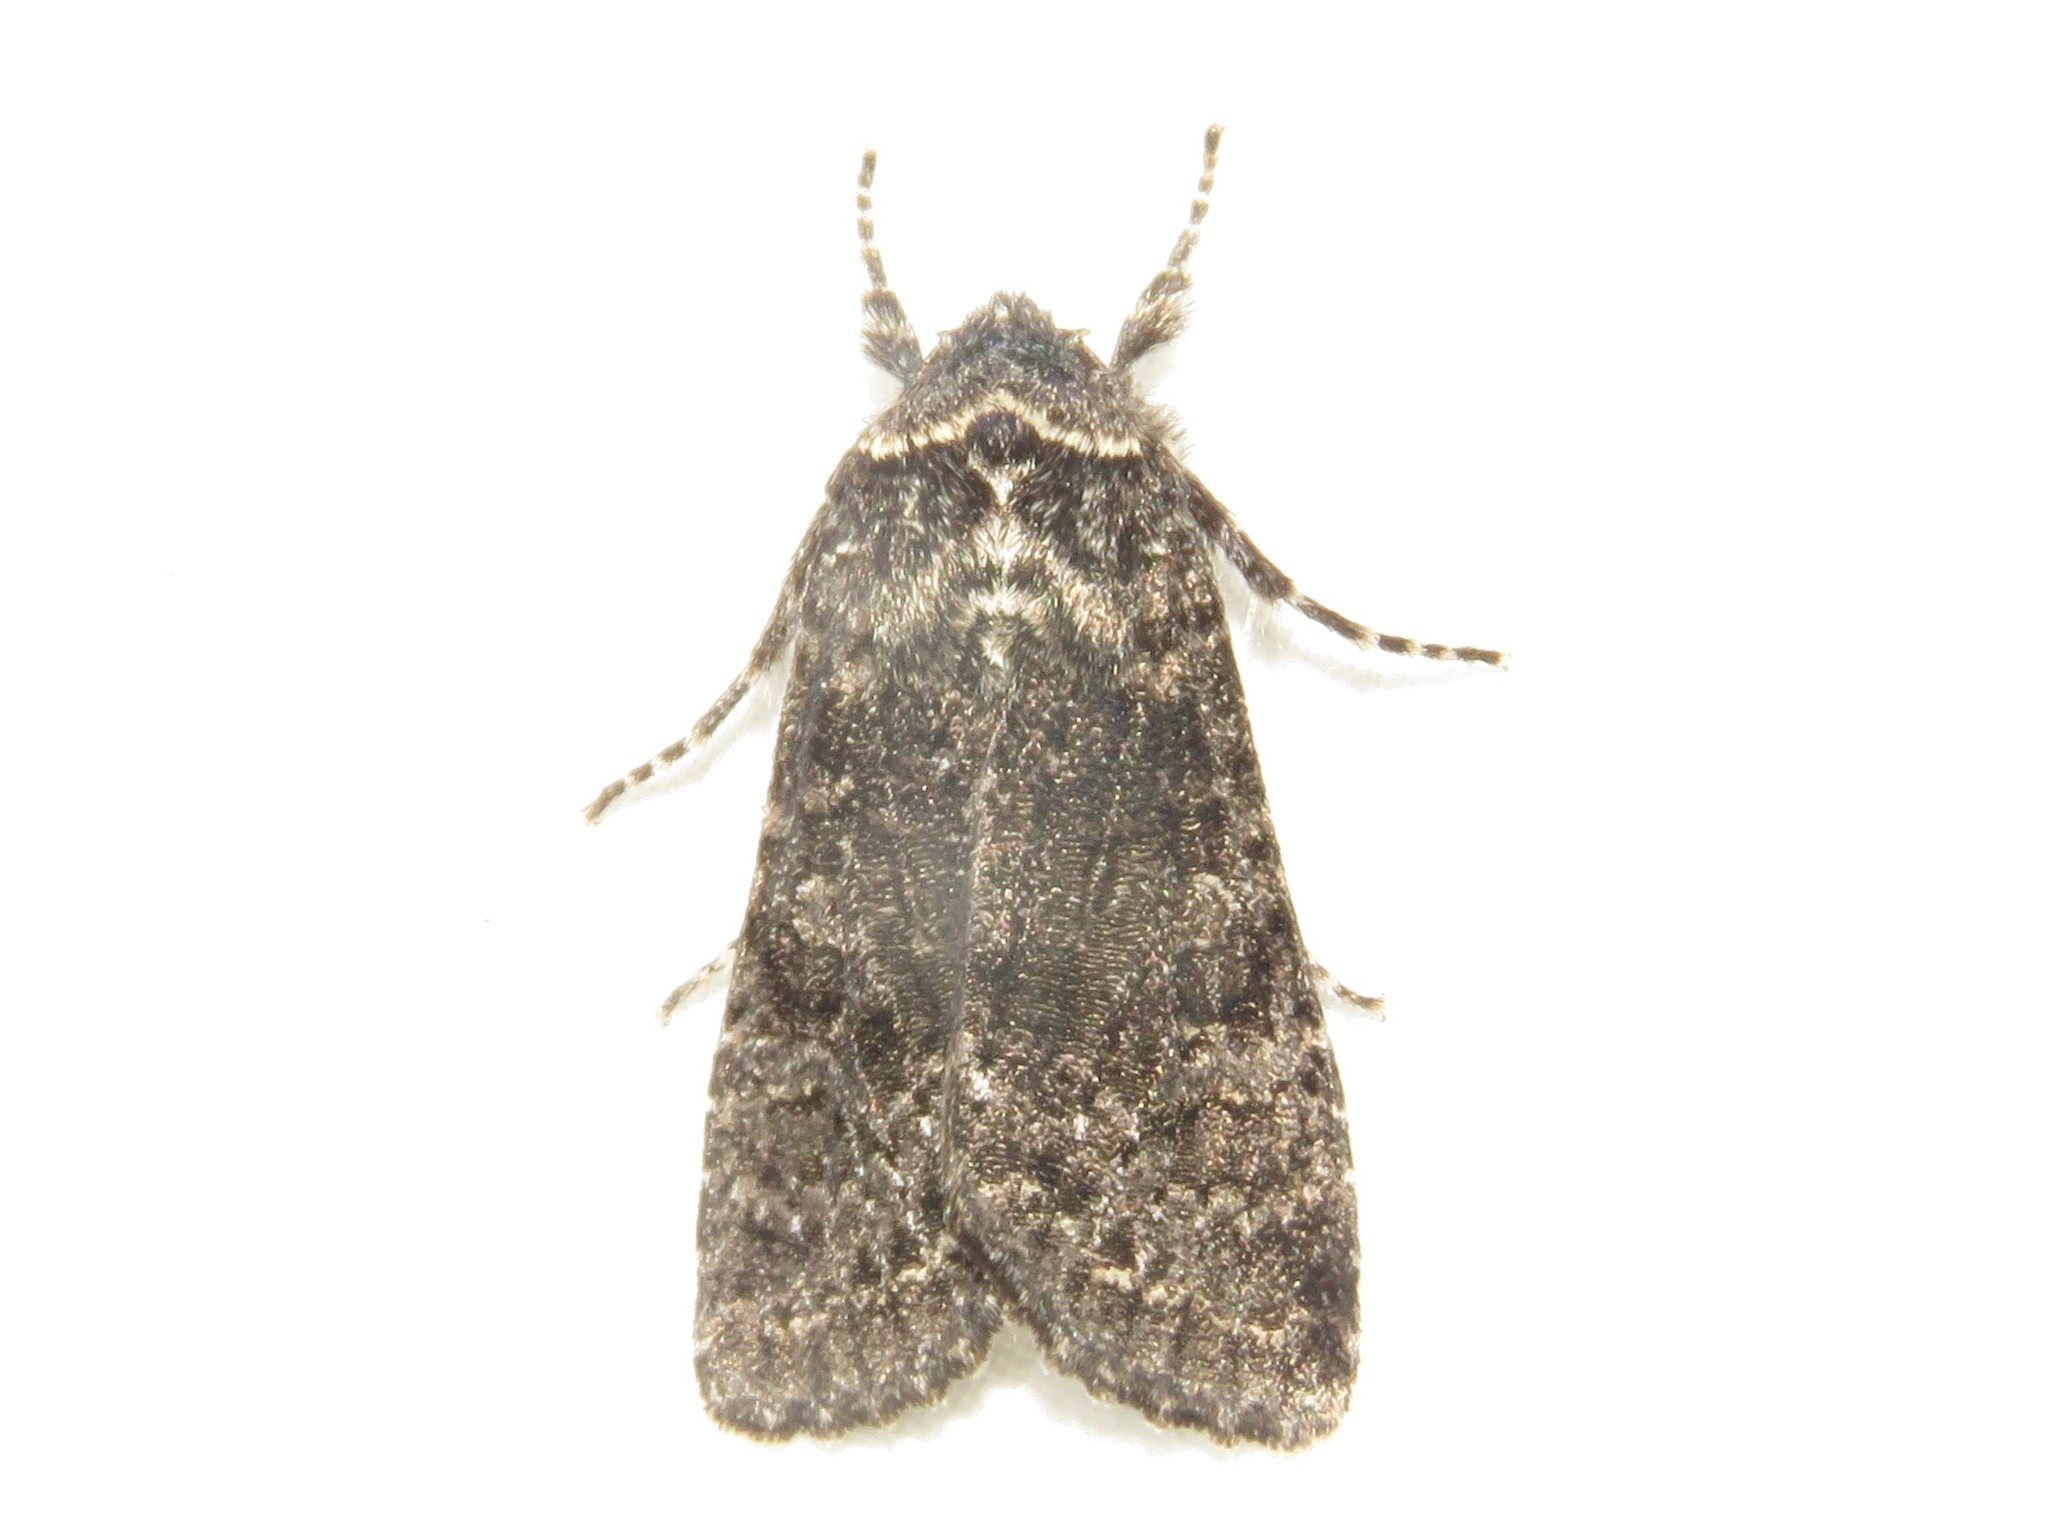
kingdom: Animalia
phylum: Arthropoda
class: Insecta
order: Lepidoptera
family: Noctuidae
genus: Egira
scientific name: Egira dolosa
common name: Lined black aspen cat.
